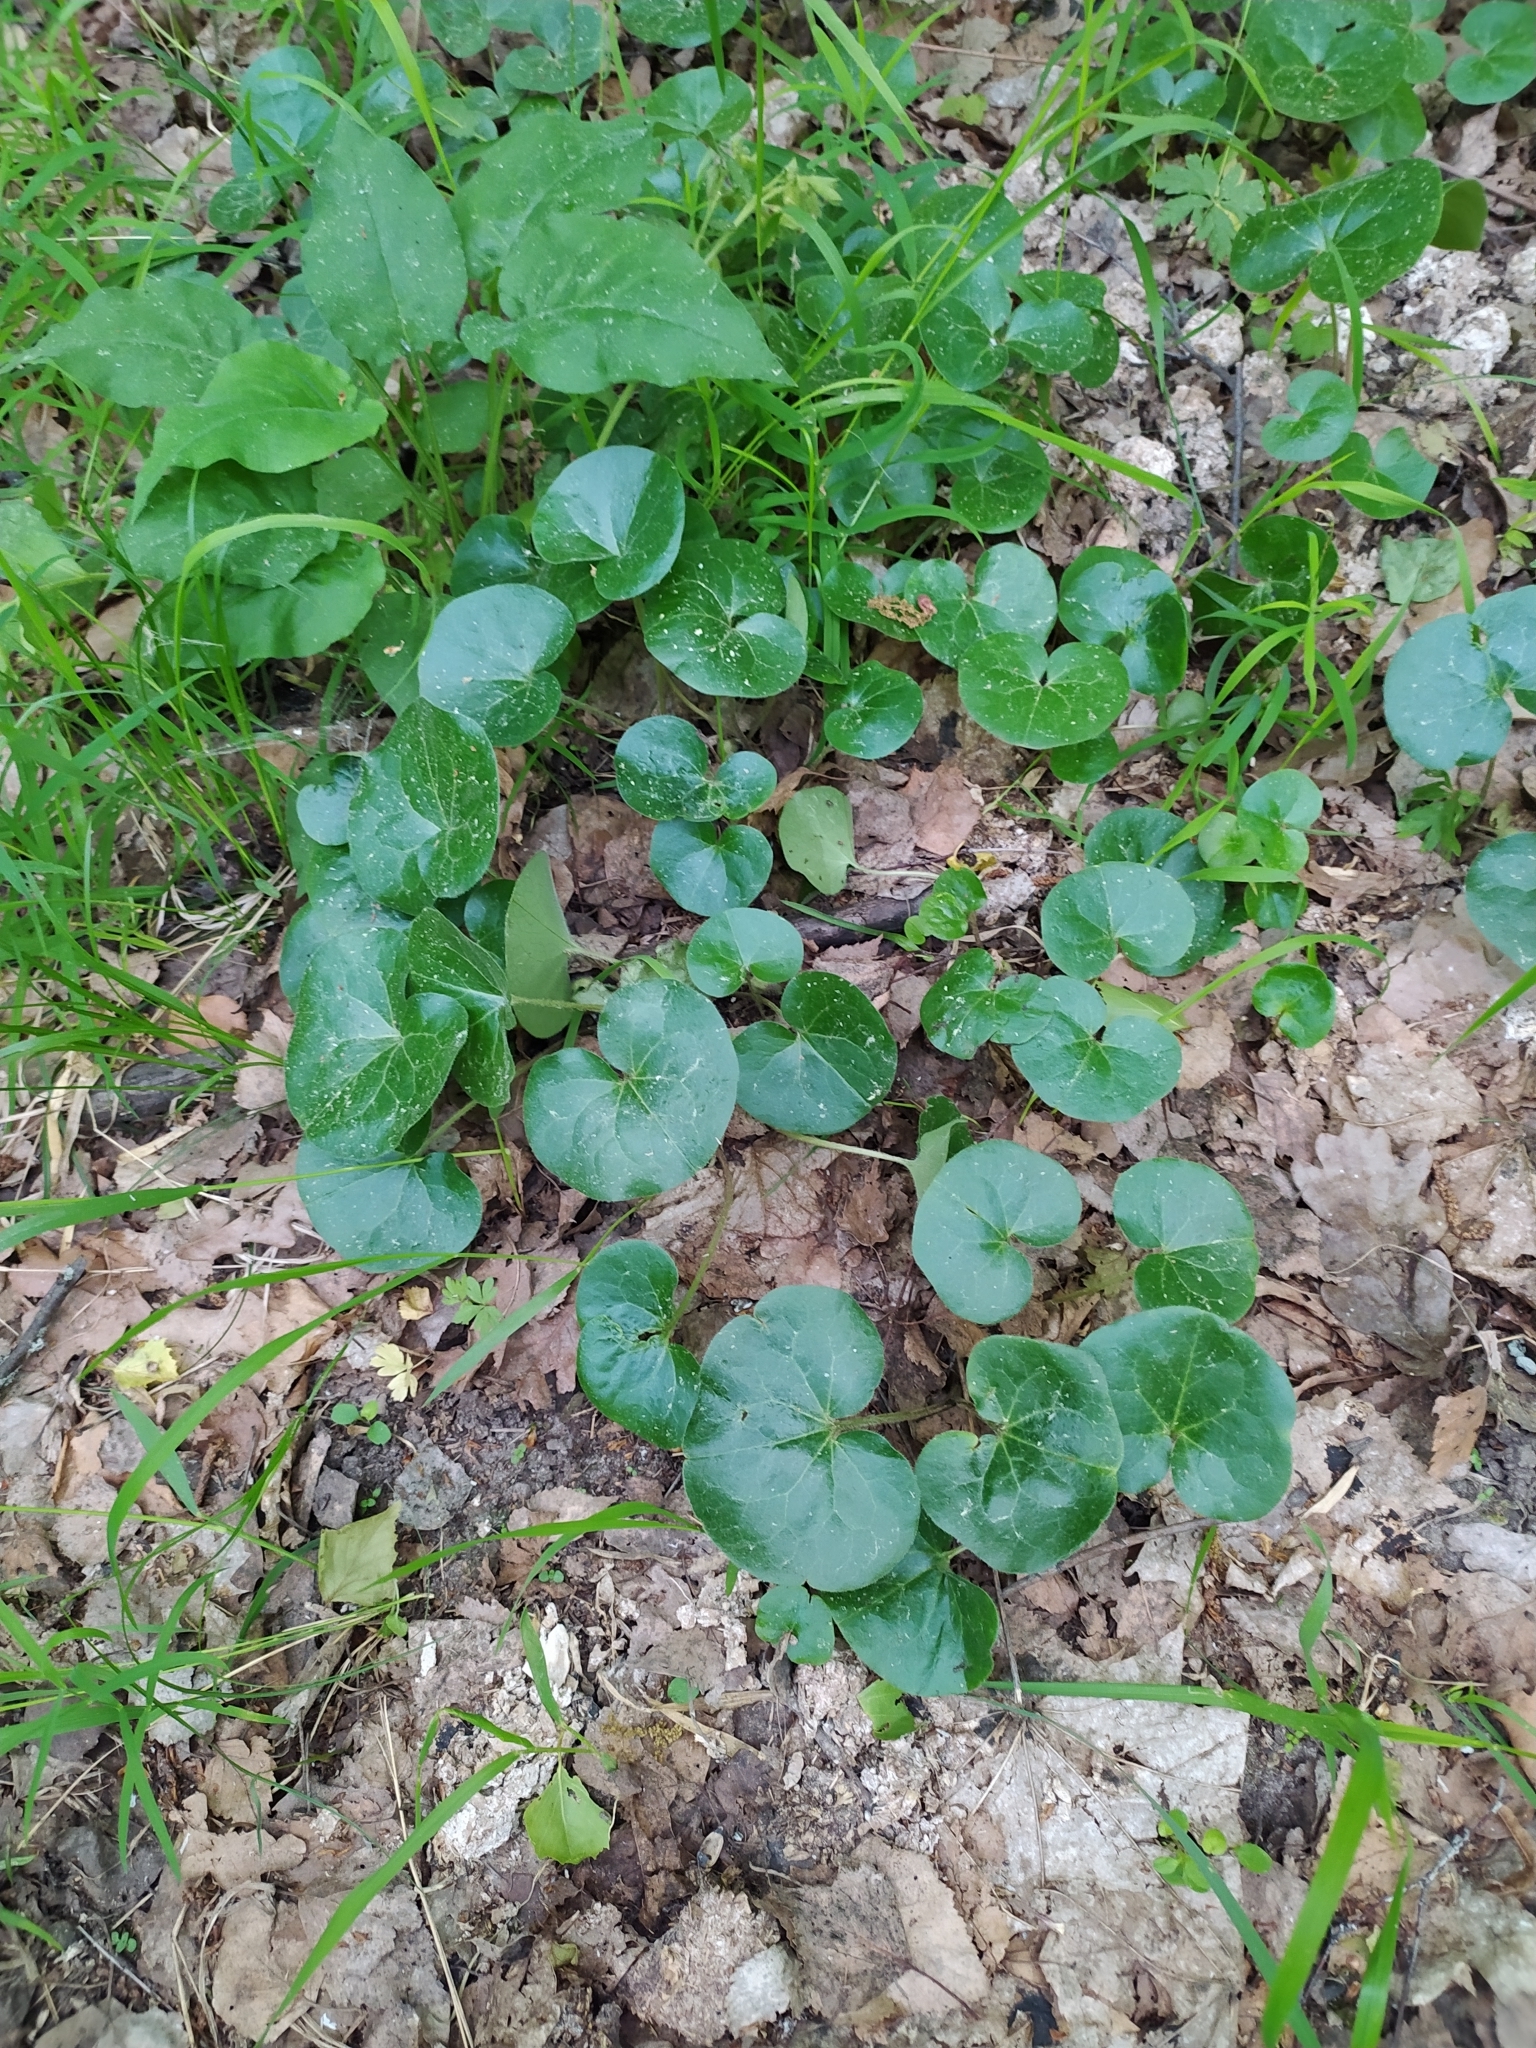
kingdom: Plantae
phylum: Tracheophyta
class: Magnoliopsida
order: Piperales
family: Aristolochiaceae
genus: Asarum
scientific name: Asarum europaeum
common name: Asarabacca
